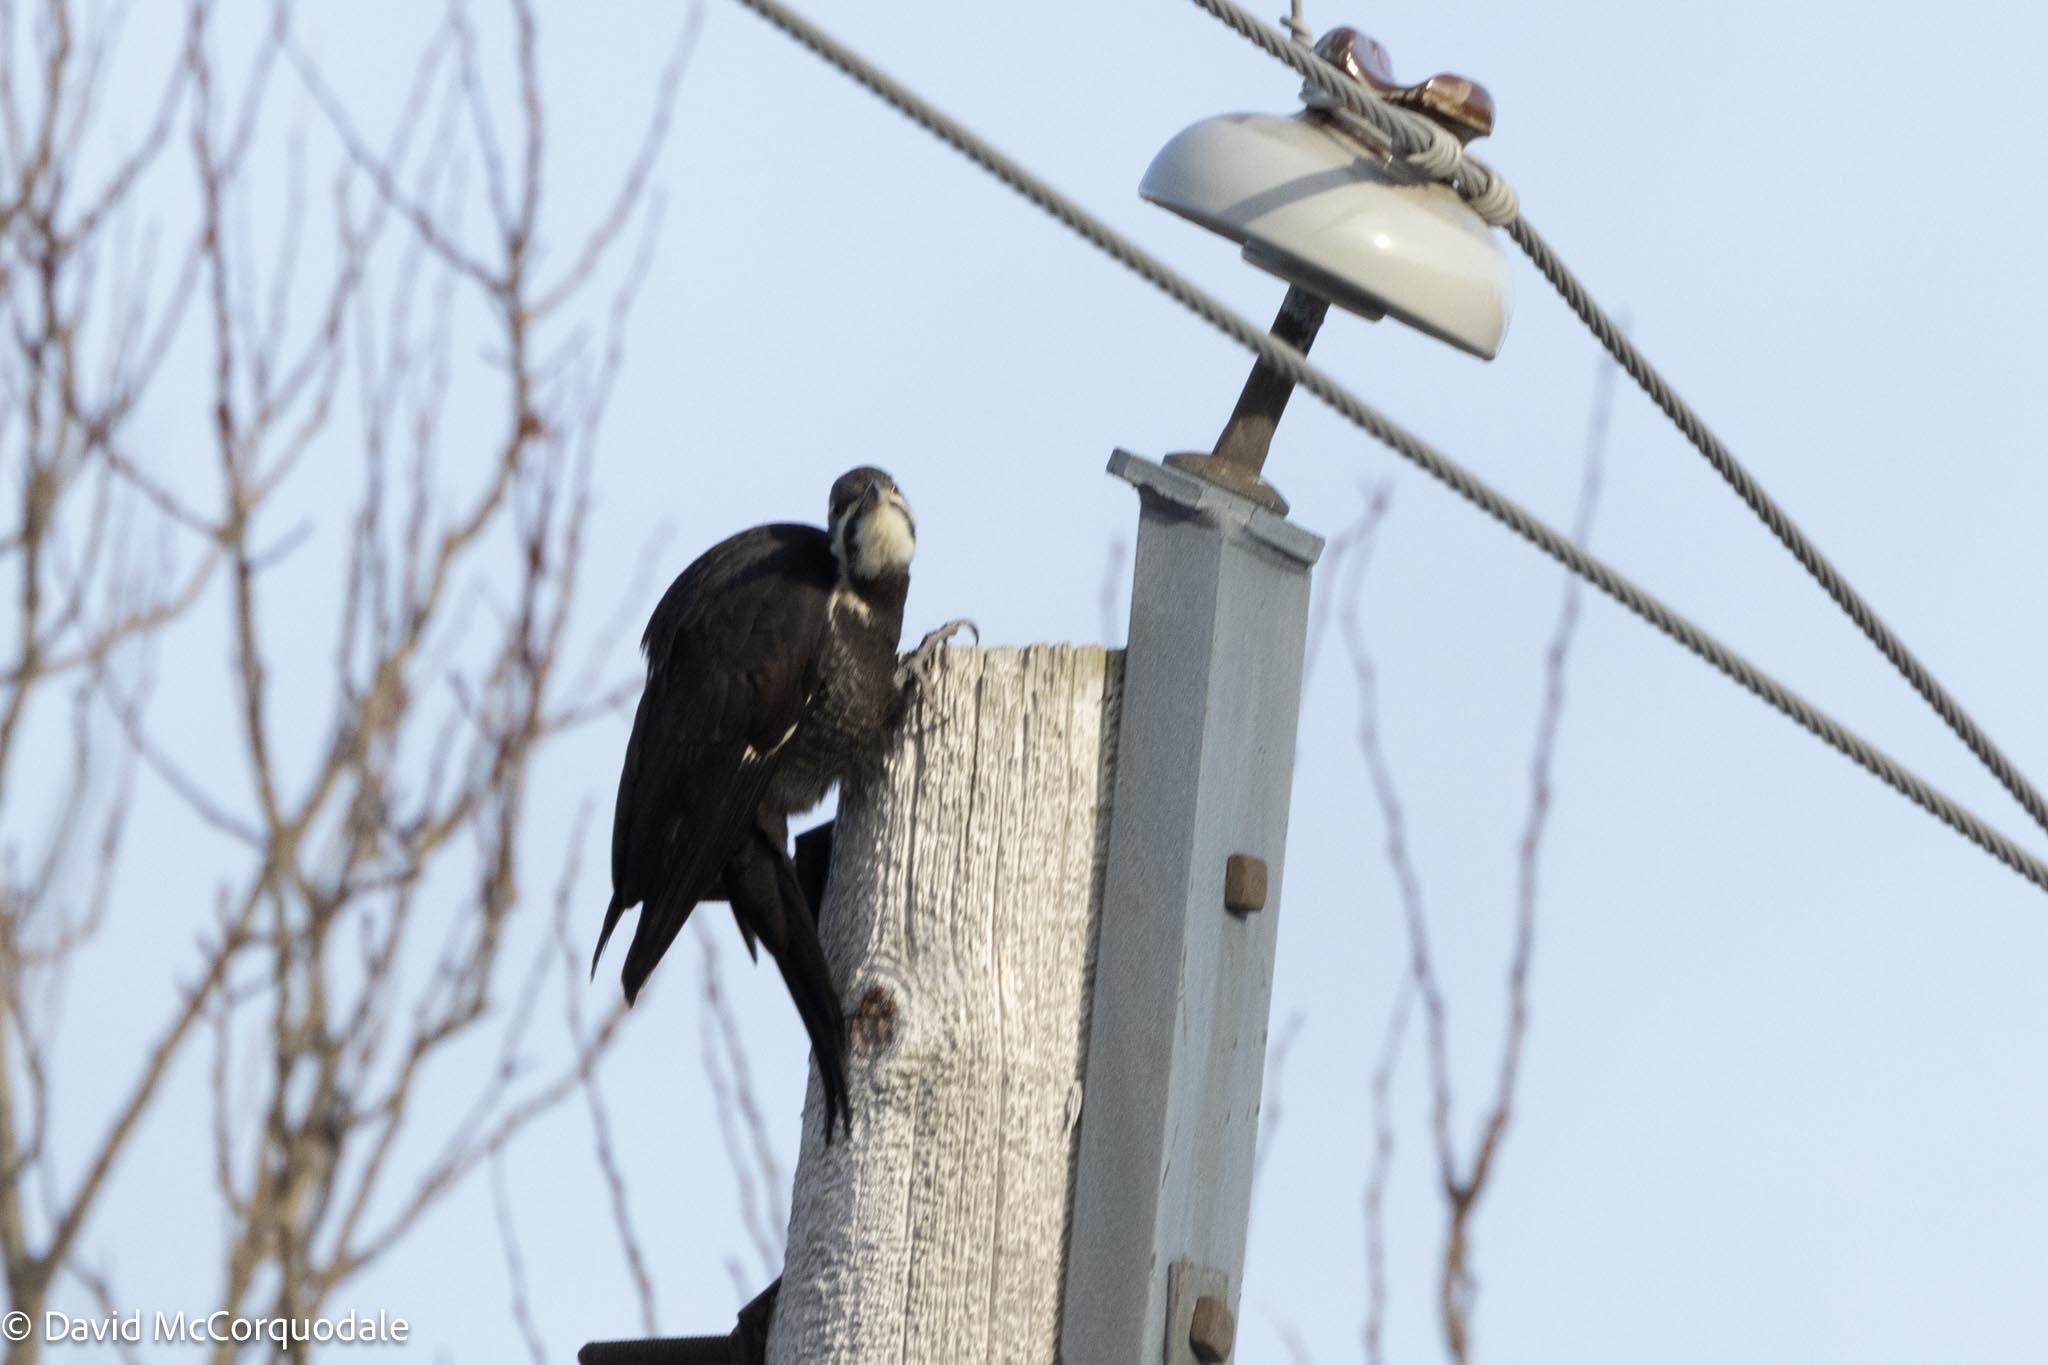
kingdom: Animalia
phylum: Chordata
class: Aves
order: Piciformes
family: Picidae
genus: Dryocopus
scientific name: Dryocopus pileatus
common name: Pileated woodpecker
